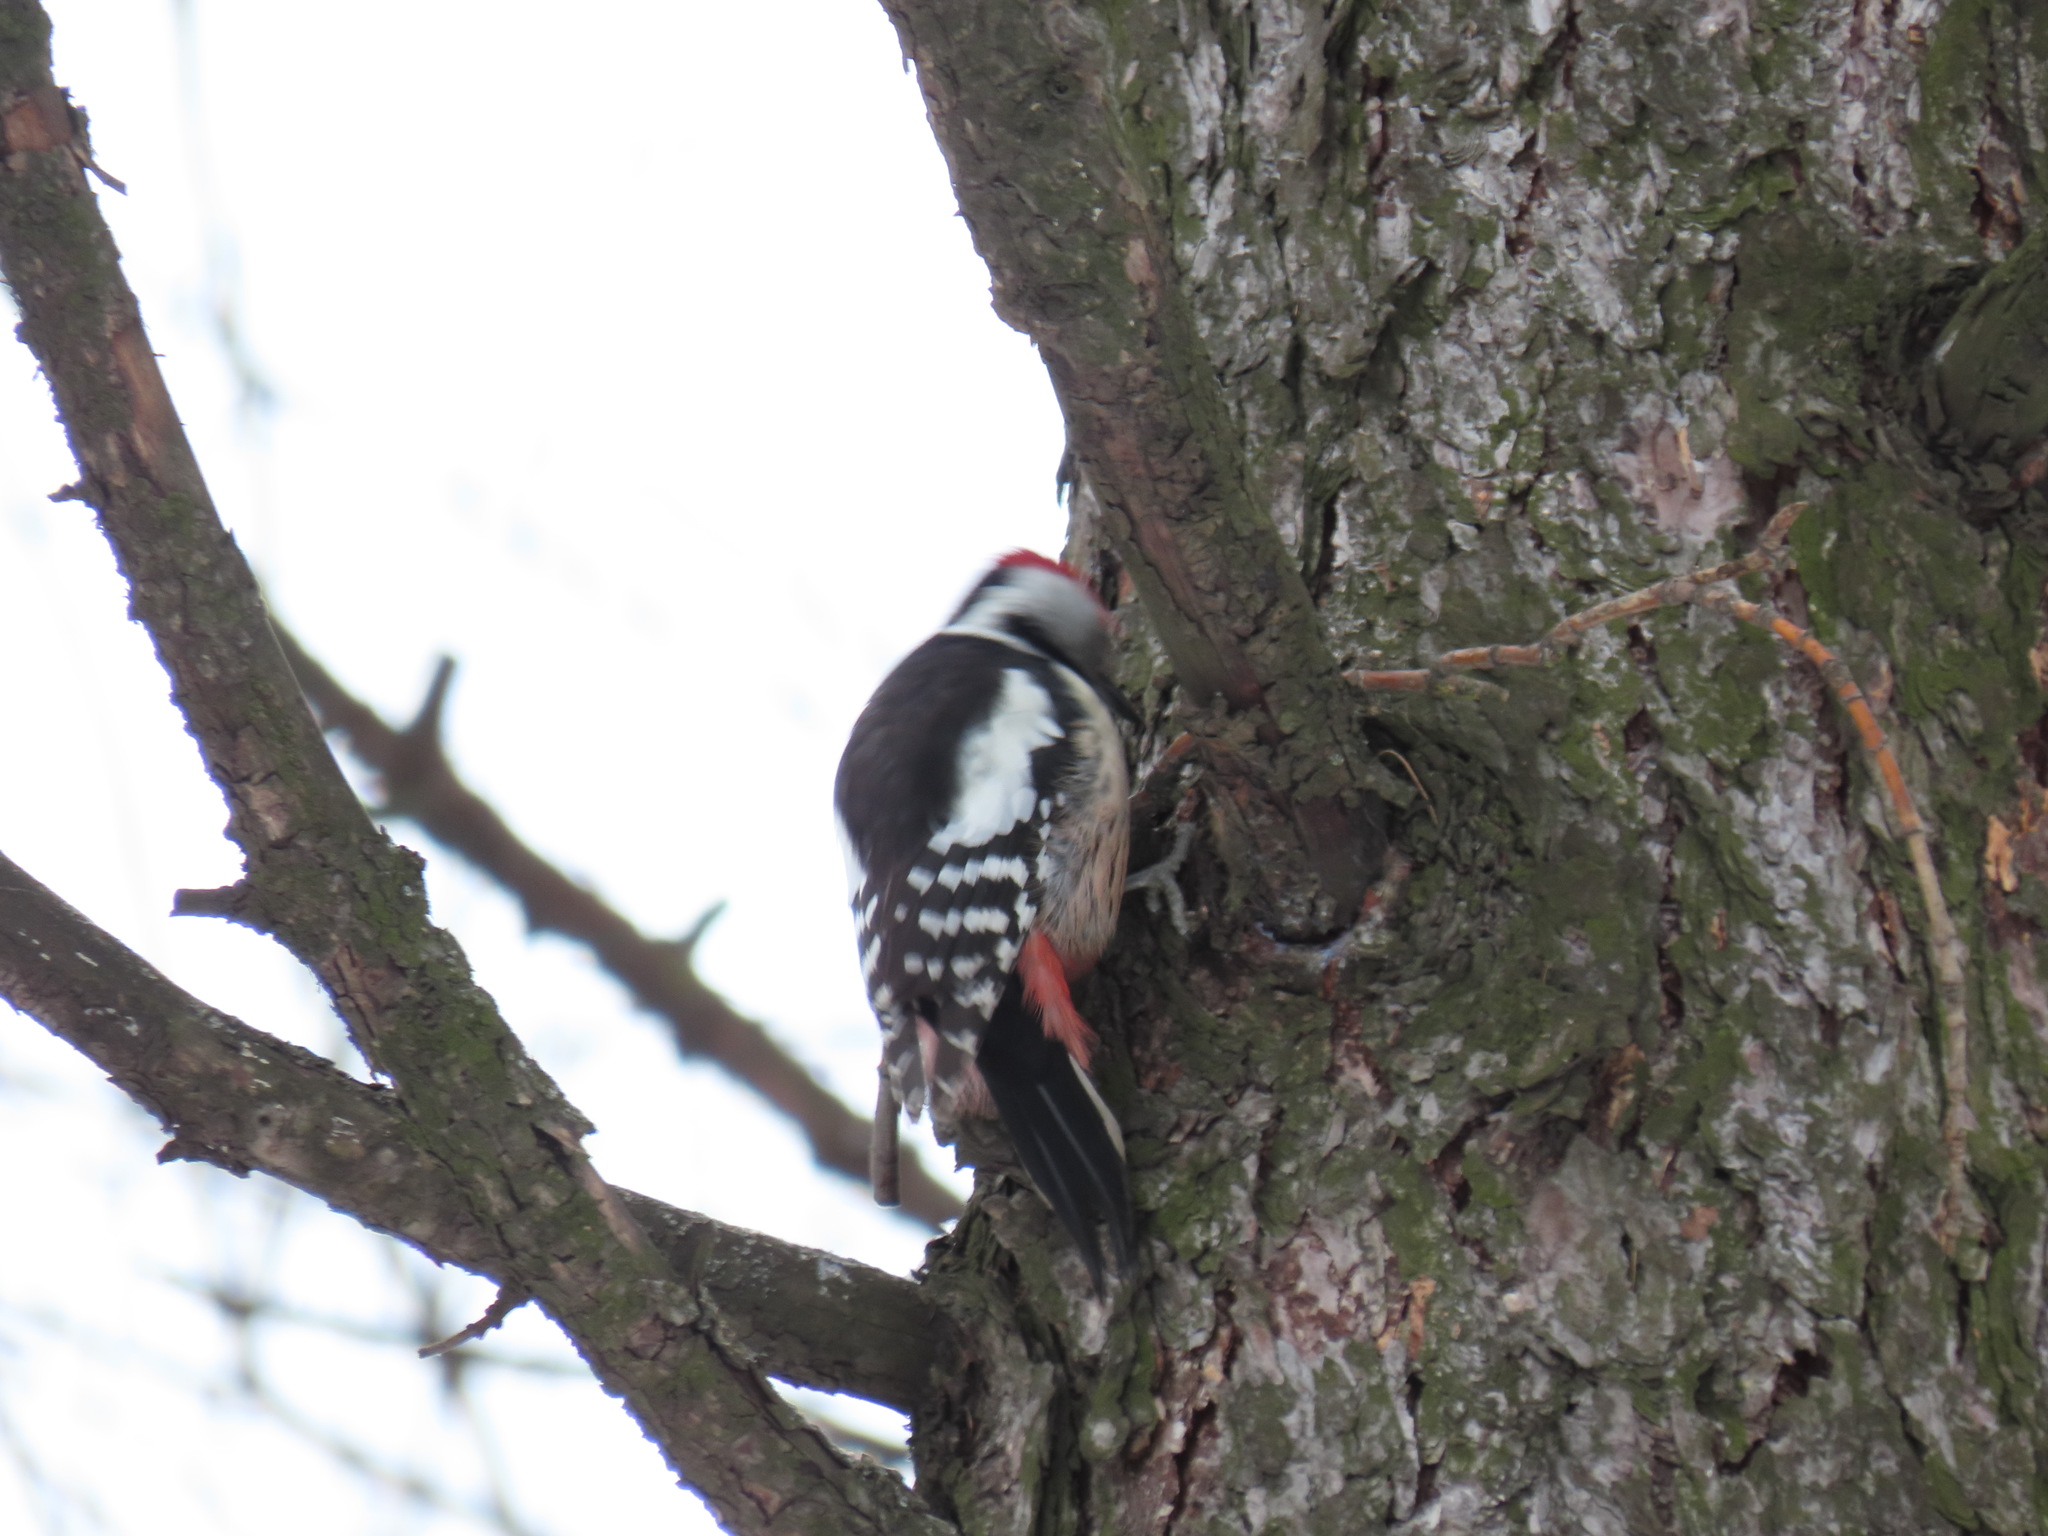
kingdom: Animalia
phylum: Chordata
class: Aves
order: Piciformes
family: Picidae
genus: Dendrocoptes
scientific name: Dendrocoptes medius
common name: Middle spotted woodpecker
